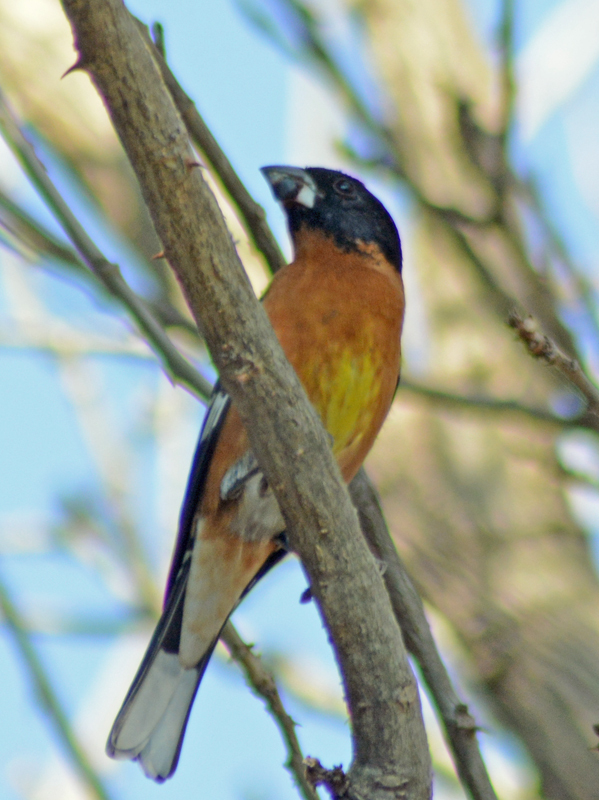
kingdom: Animalia
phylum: Chordata
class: Aves
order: Passeriformes
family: Cardinalidae
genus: Pheucticus
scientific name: Pheucticus melanocephalus
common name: Black-headed grosbeak
